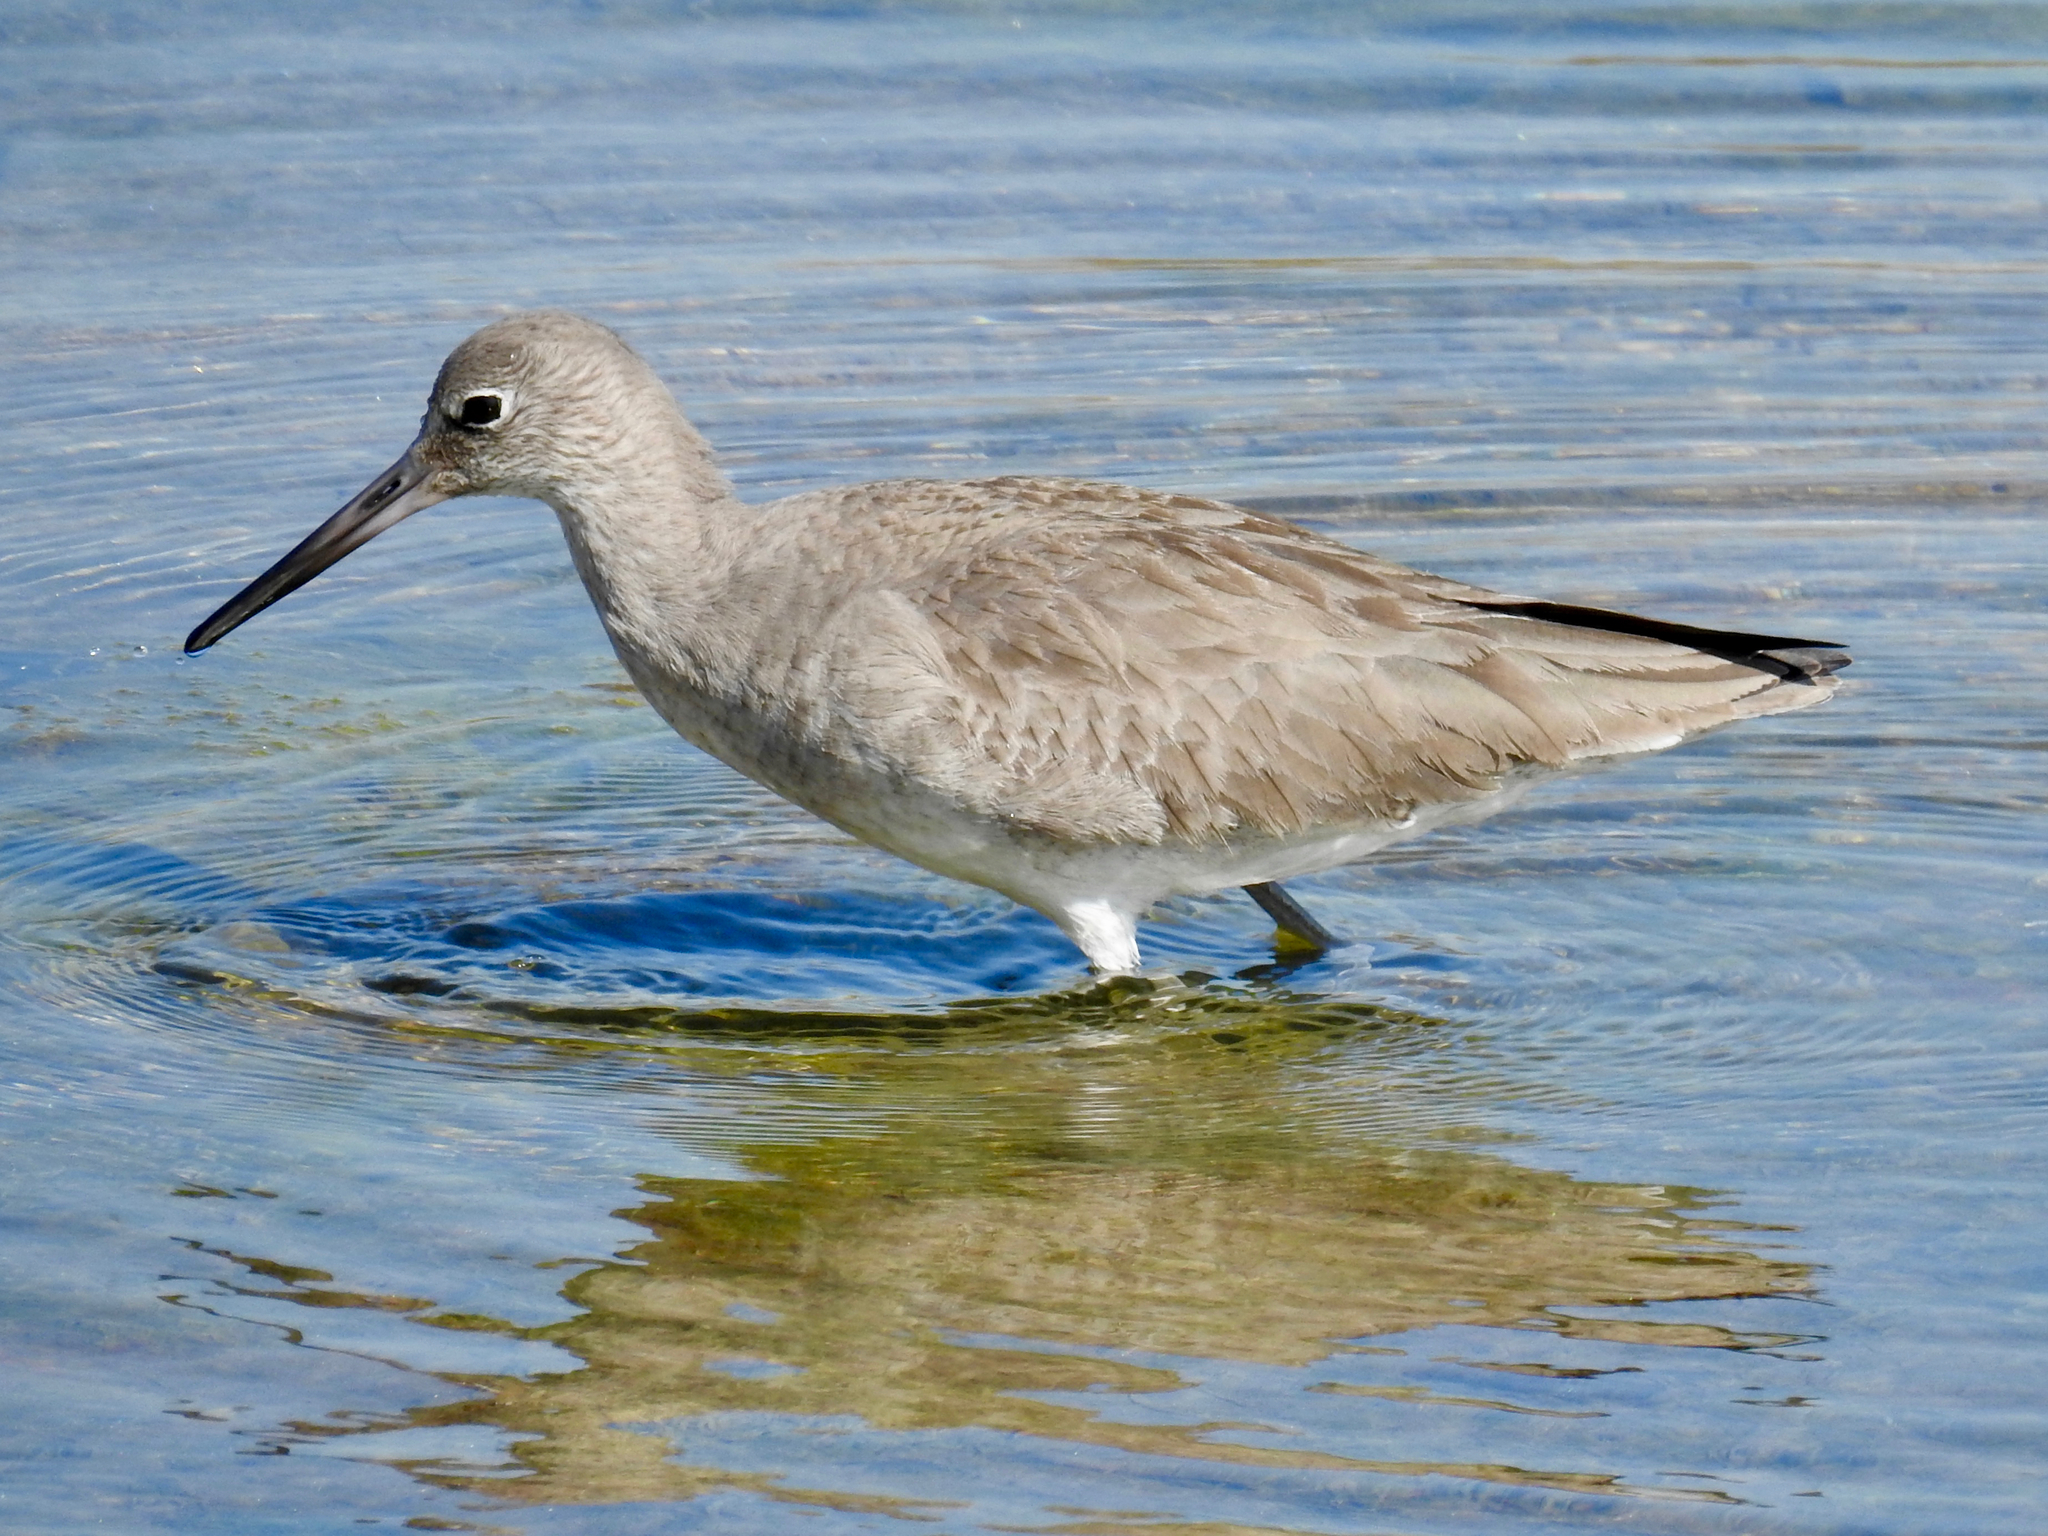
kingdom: Animalia
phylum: Chordata
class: Aves
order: Charadriiformes
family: Scolopacidae
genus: Tringa
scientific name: Tringa semipalmata
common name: Willet
